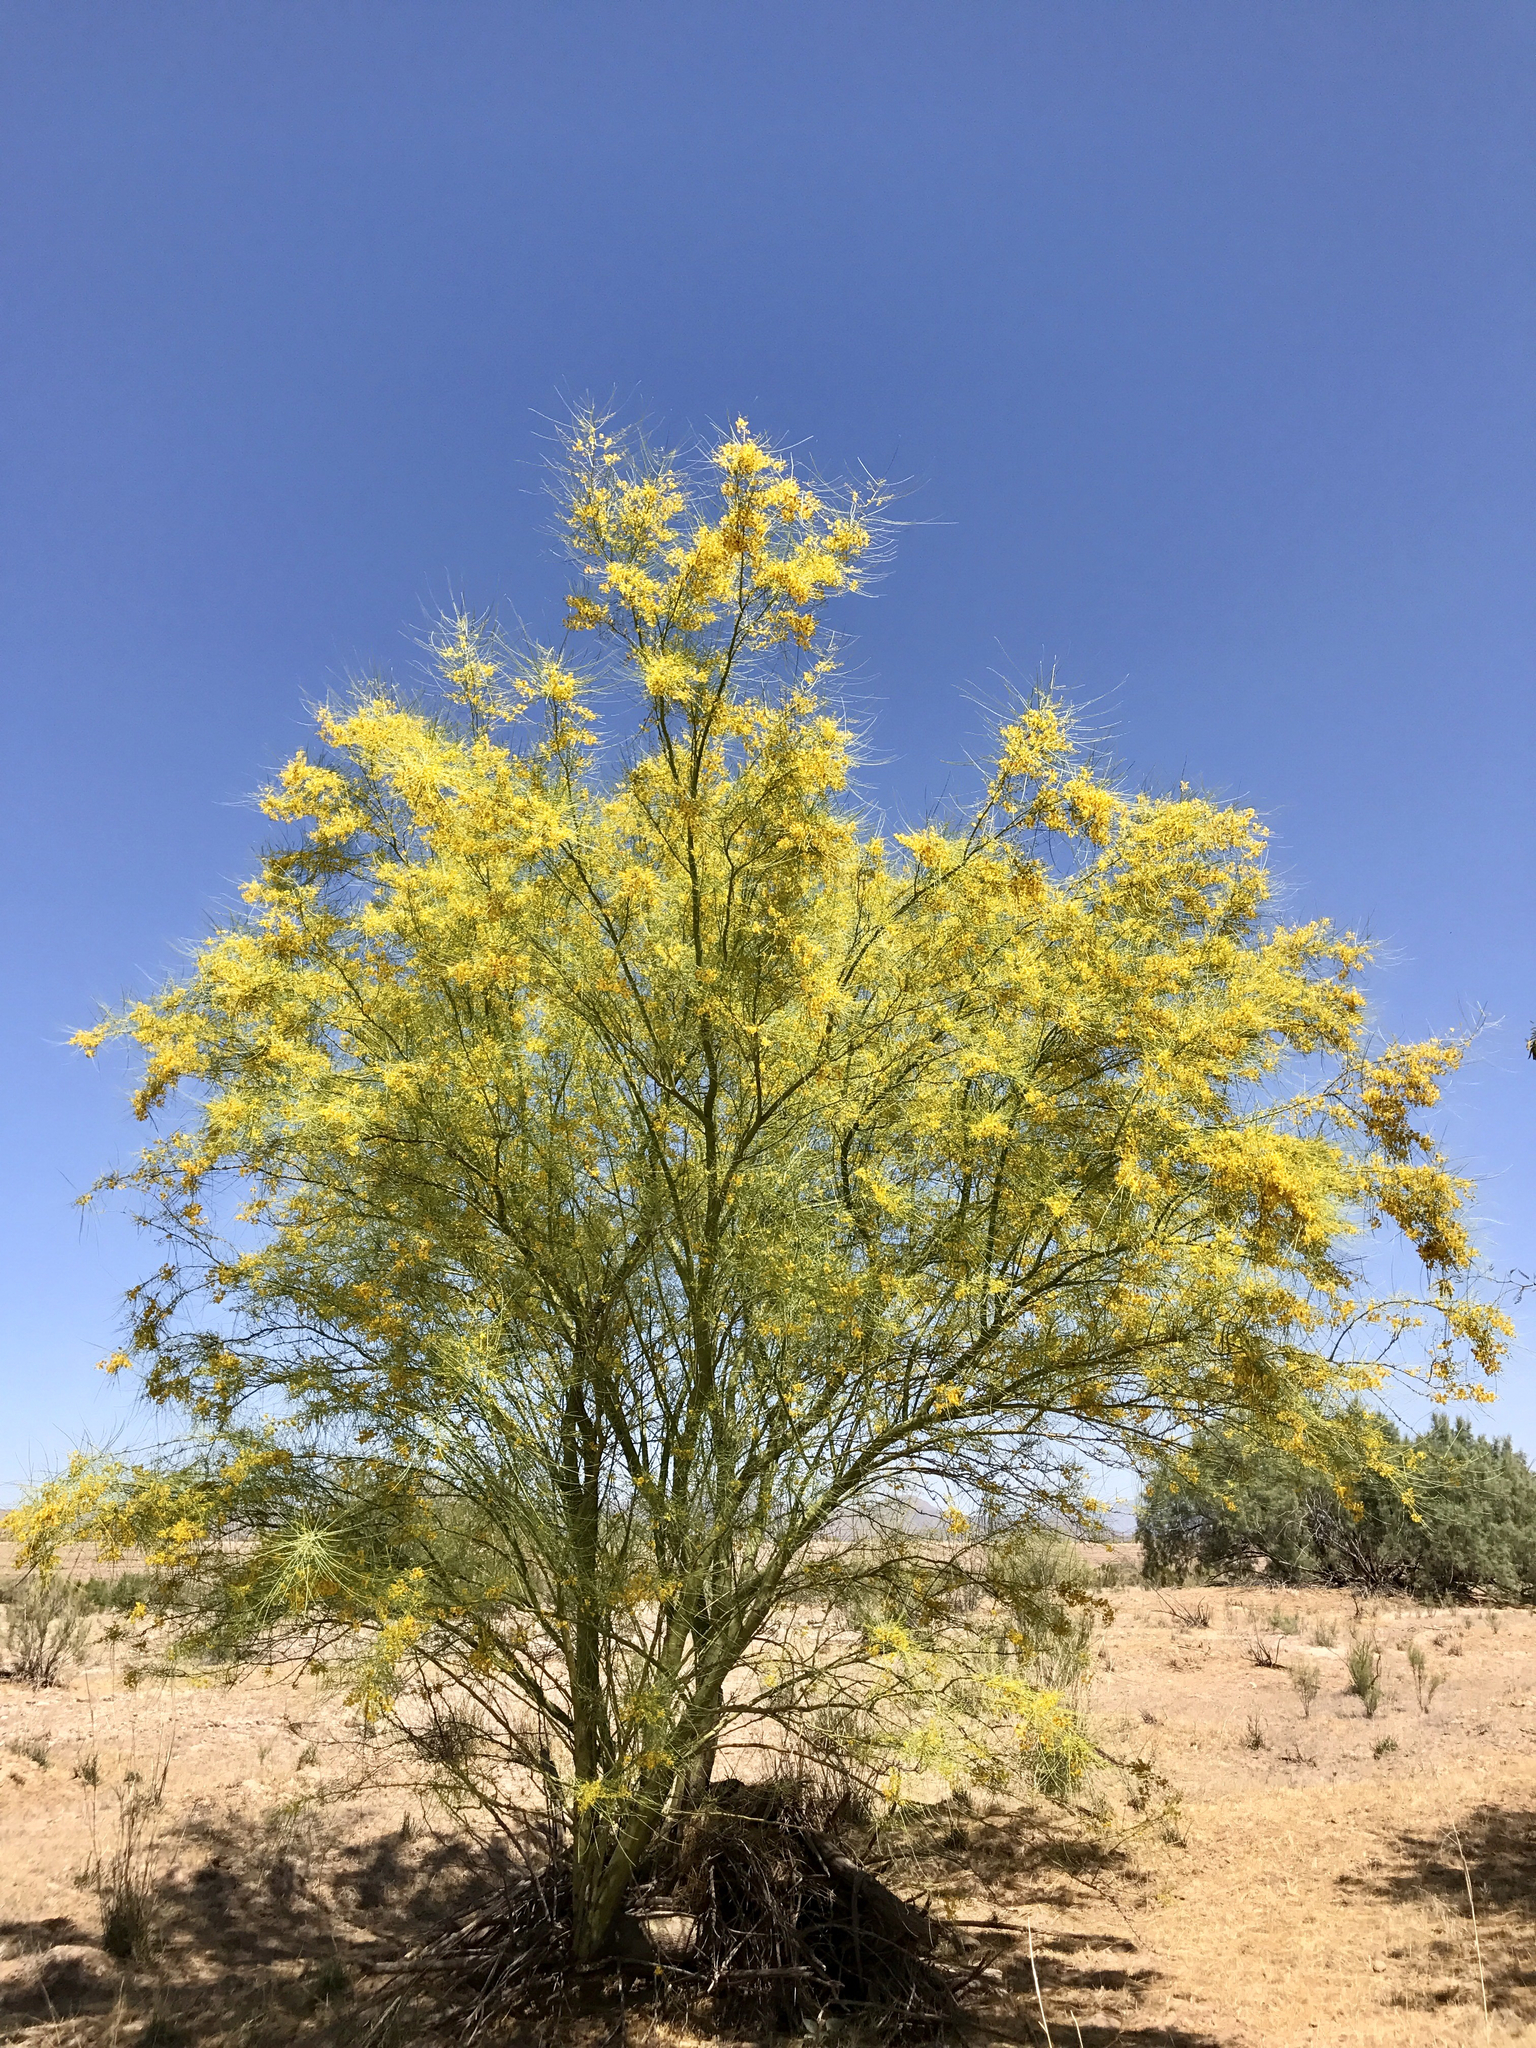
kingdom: Plantae
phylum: Tracheophyta
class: Magnoliopsida
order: Fabales
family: Fabaceae
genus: Parkinsonia
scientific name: Parkinsonia aculeata
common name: Jerusalem thorn
